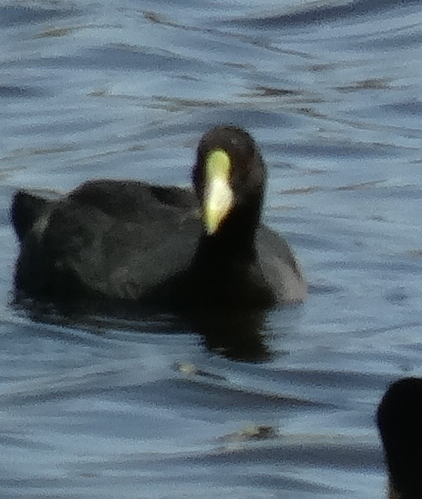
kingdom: Animalia
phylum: Chordata
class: Aves
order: Gruiformes
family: Rallidae
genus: Fulica
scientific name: Fulica leucoptera
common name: White-winged coot
